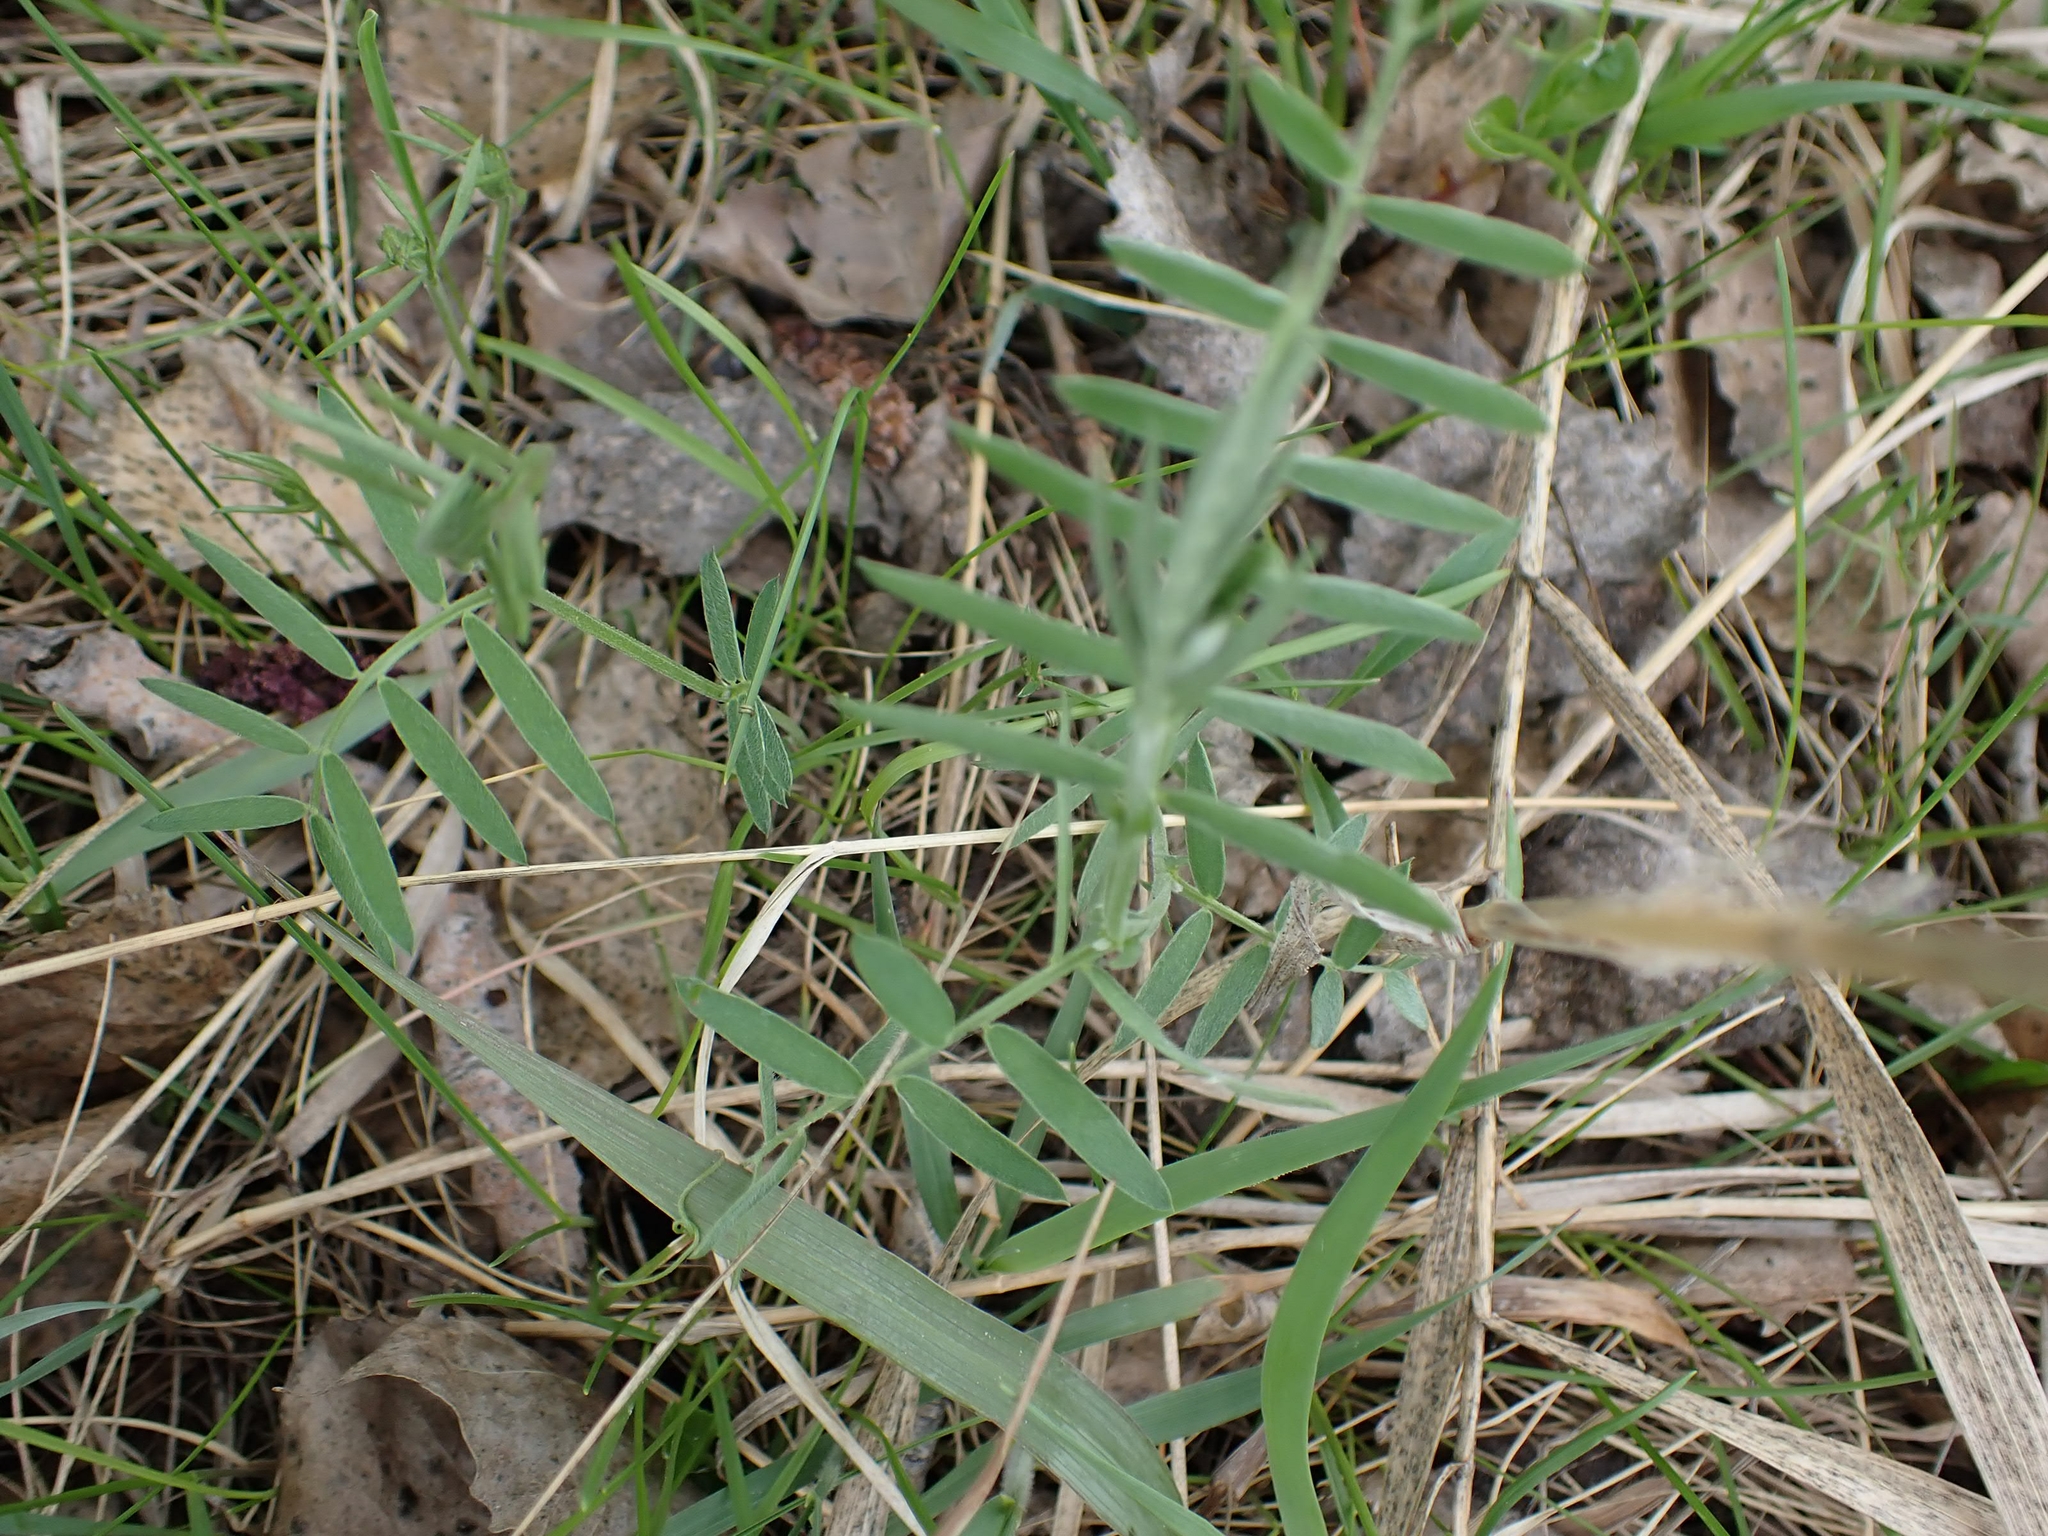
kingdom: Plantae
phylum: Tracheophyta
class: Magnoliopsida
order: Fabales
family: Fabaceae
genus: Vicia
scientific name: Vicia americana
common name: American vetch
